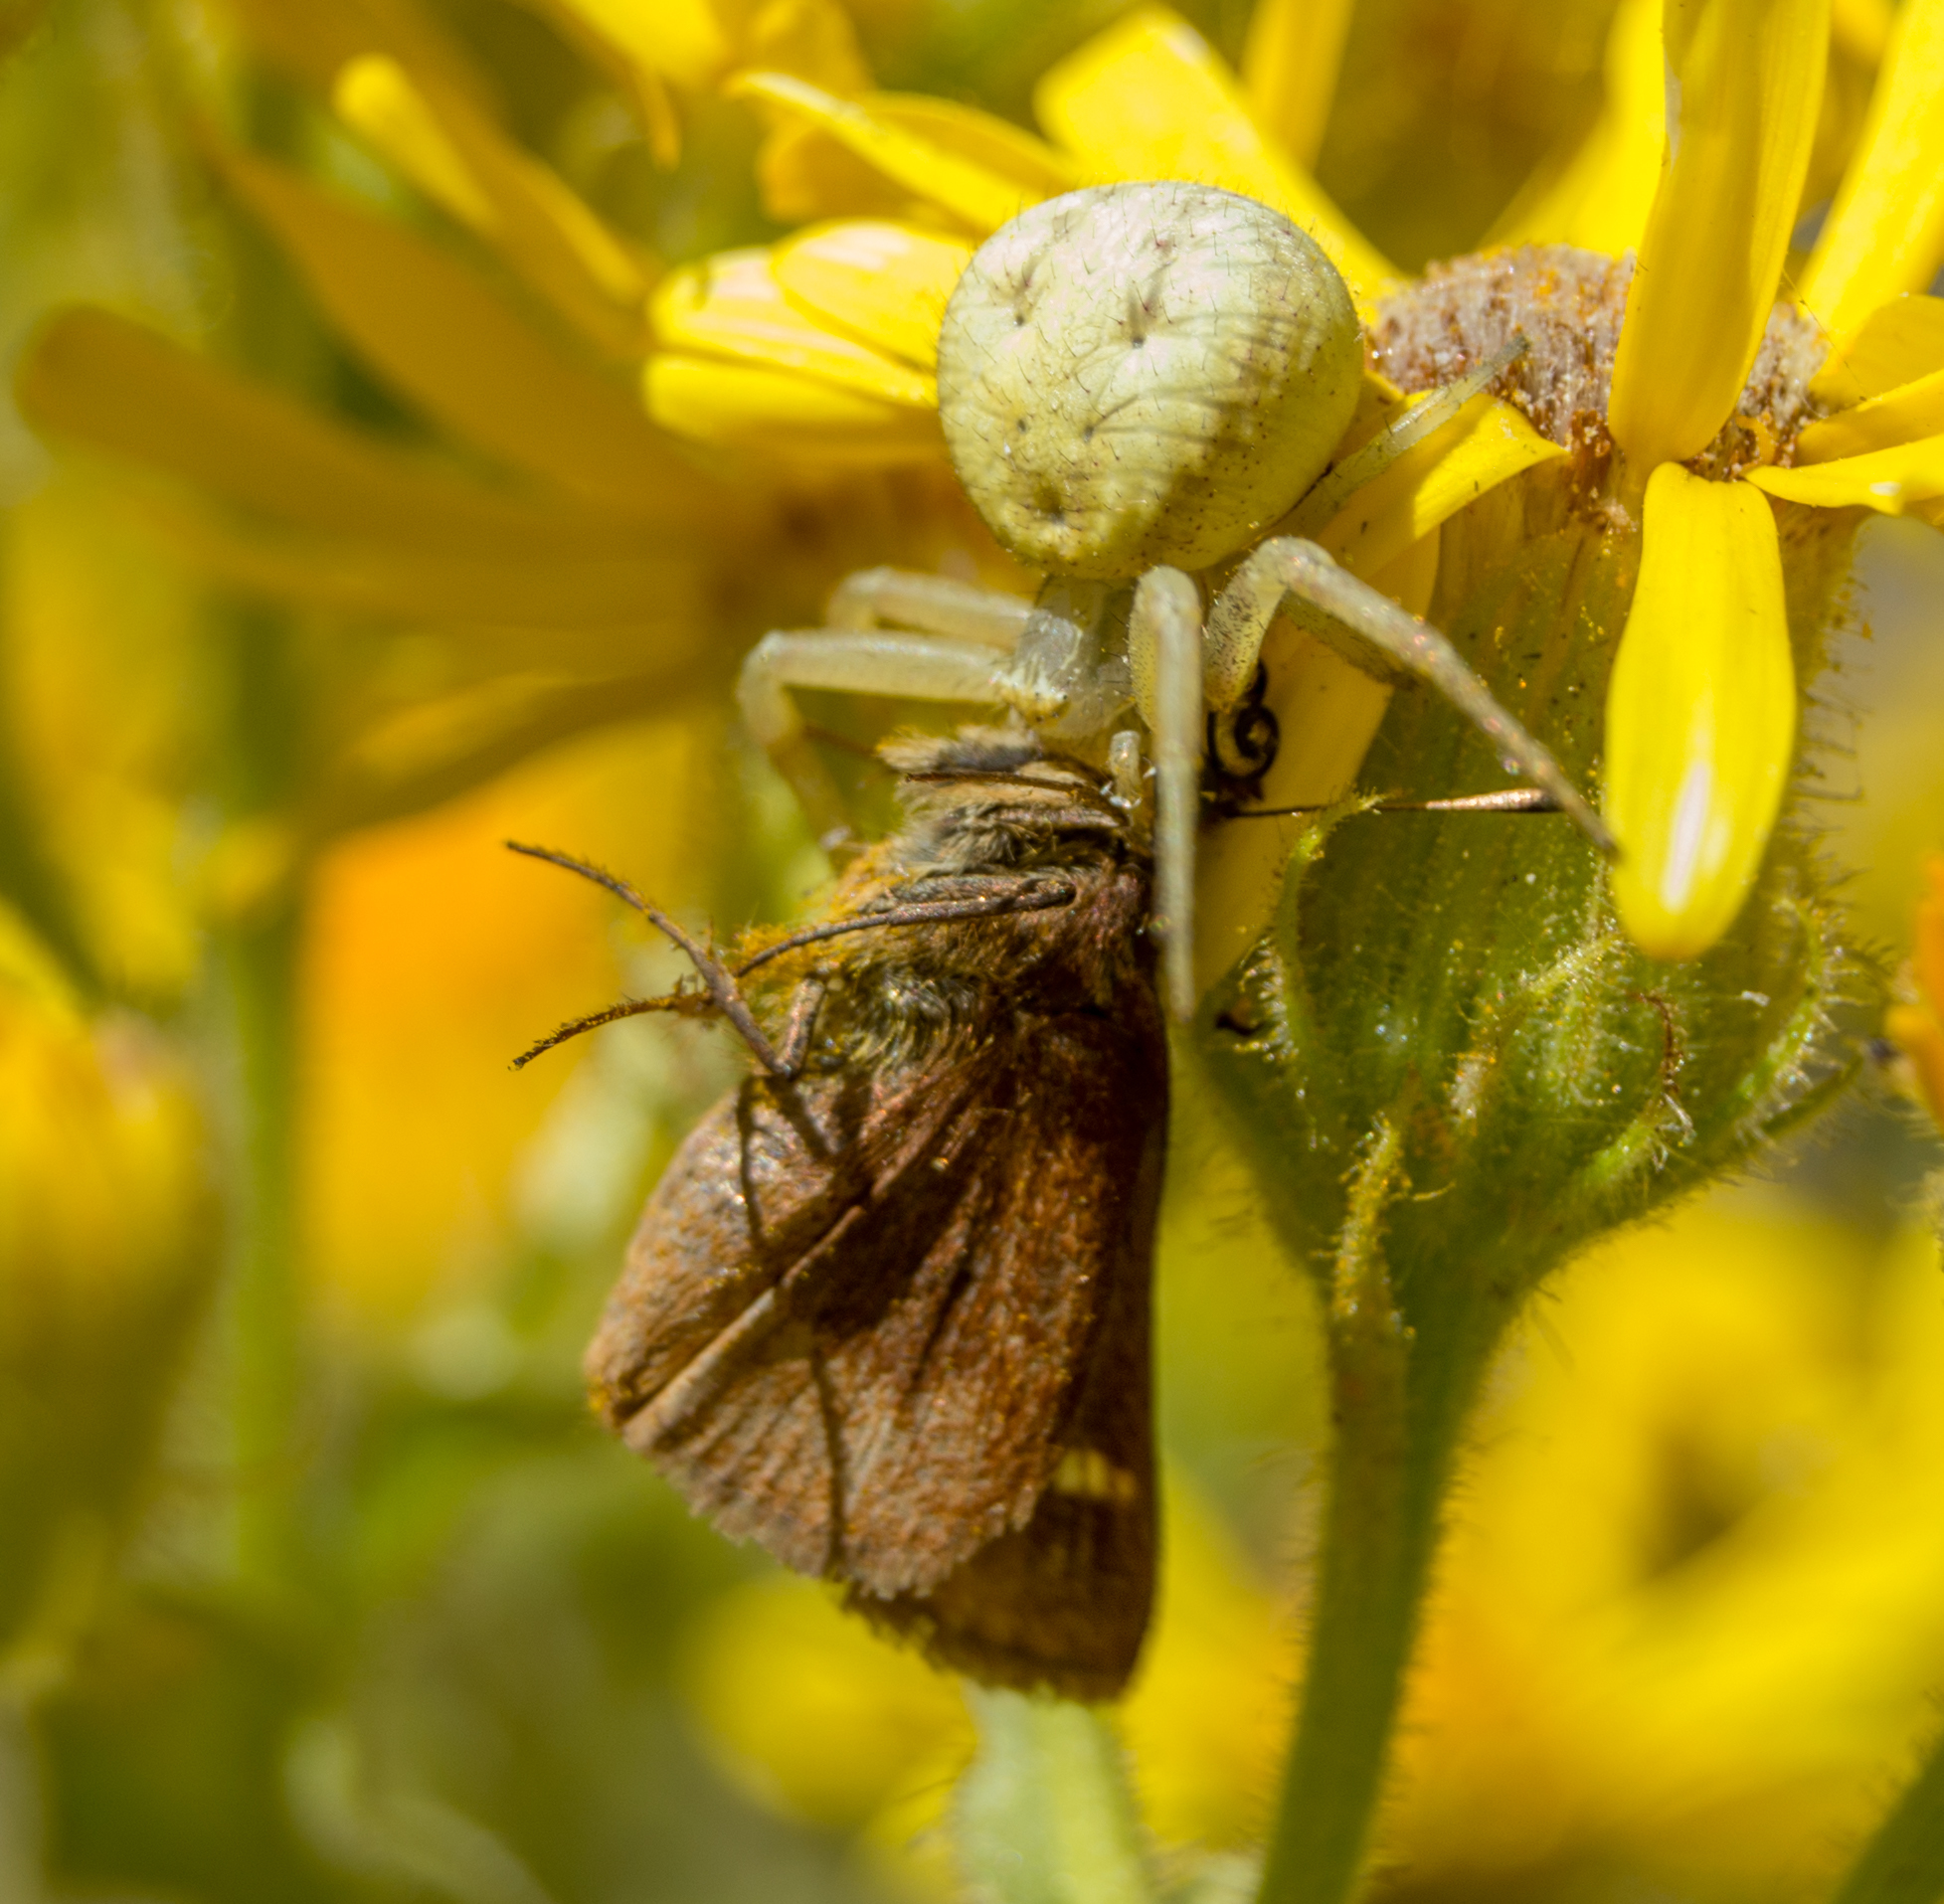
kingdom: Animalia
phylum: Arthropoda
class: Arachnida
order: Araneae
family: Thomisidae
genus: Misumenops
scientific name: Misumenops
